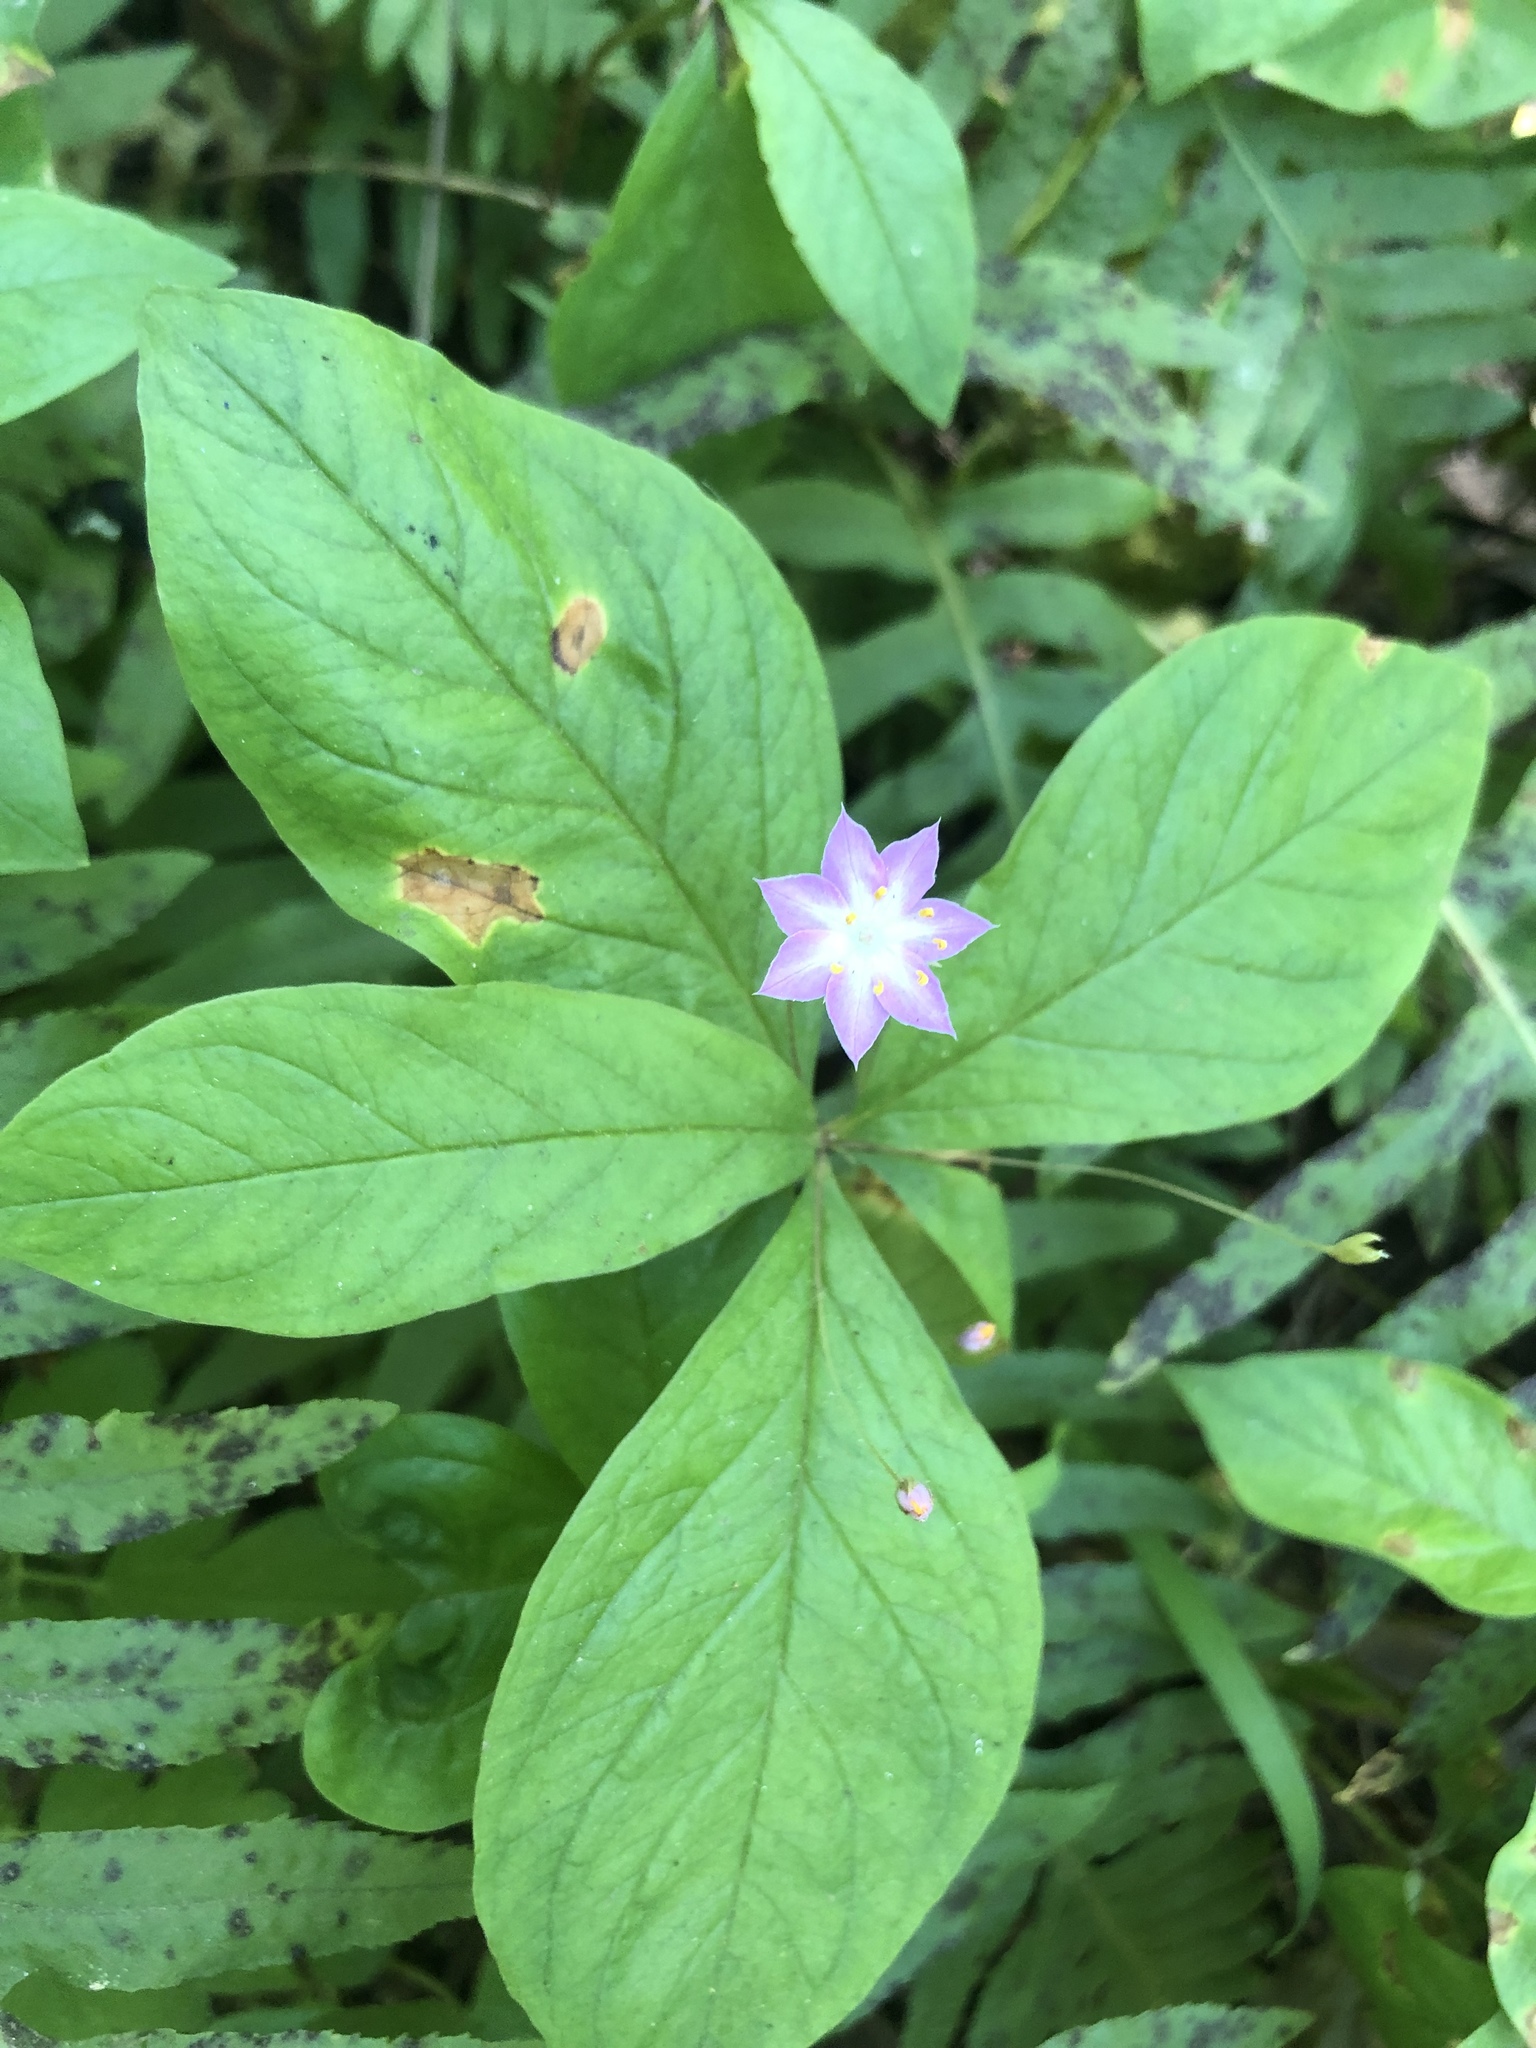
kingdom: Plantae
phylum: Tracheophyta
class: Magnoliopsida
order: Ericales
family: Primulaceae
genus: Lysimachia
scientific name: Lysimachia latifolia
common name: Pacific starflower
